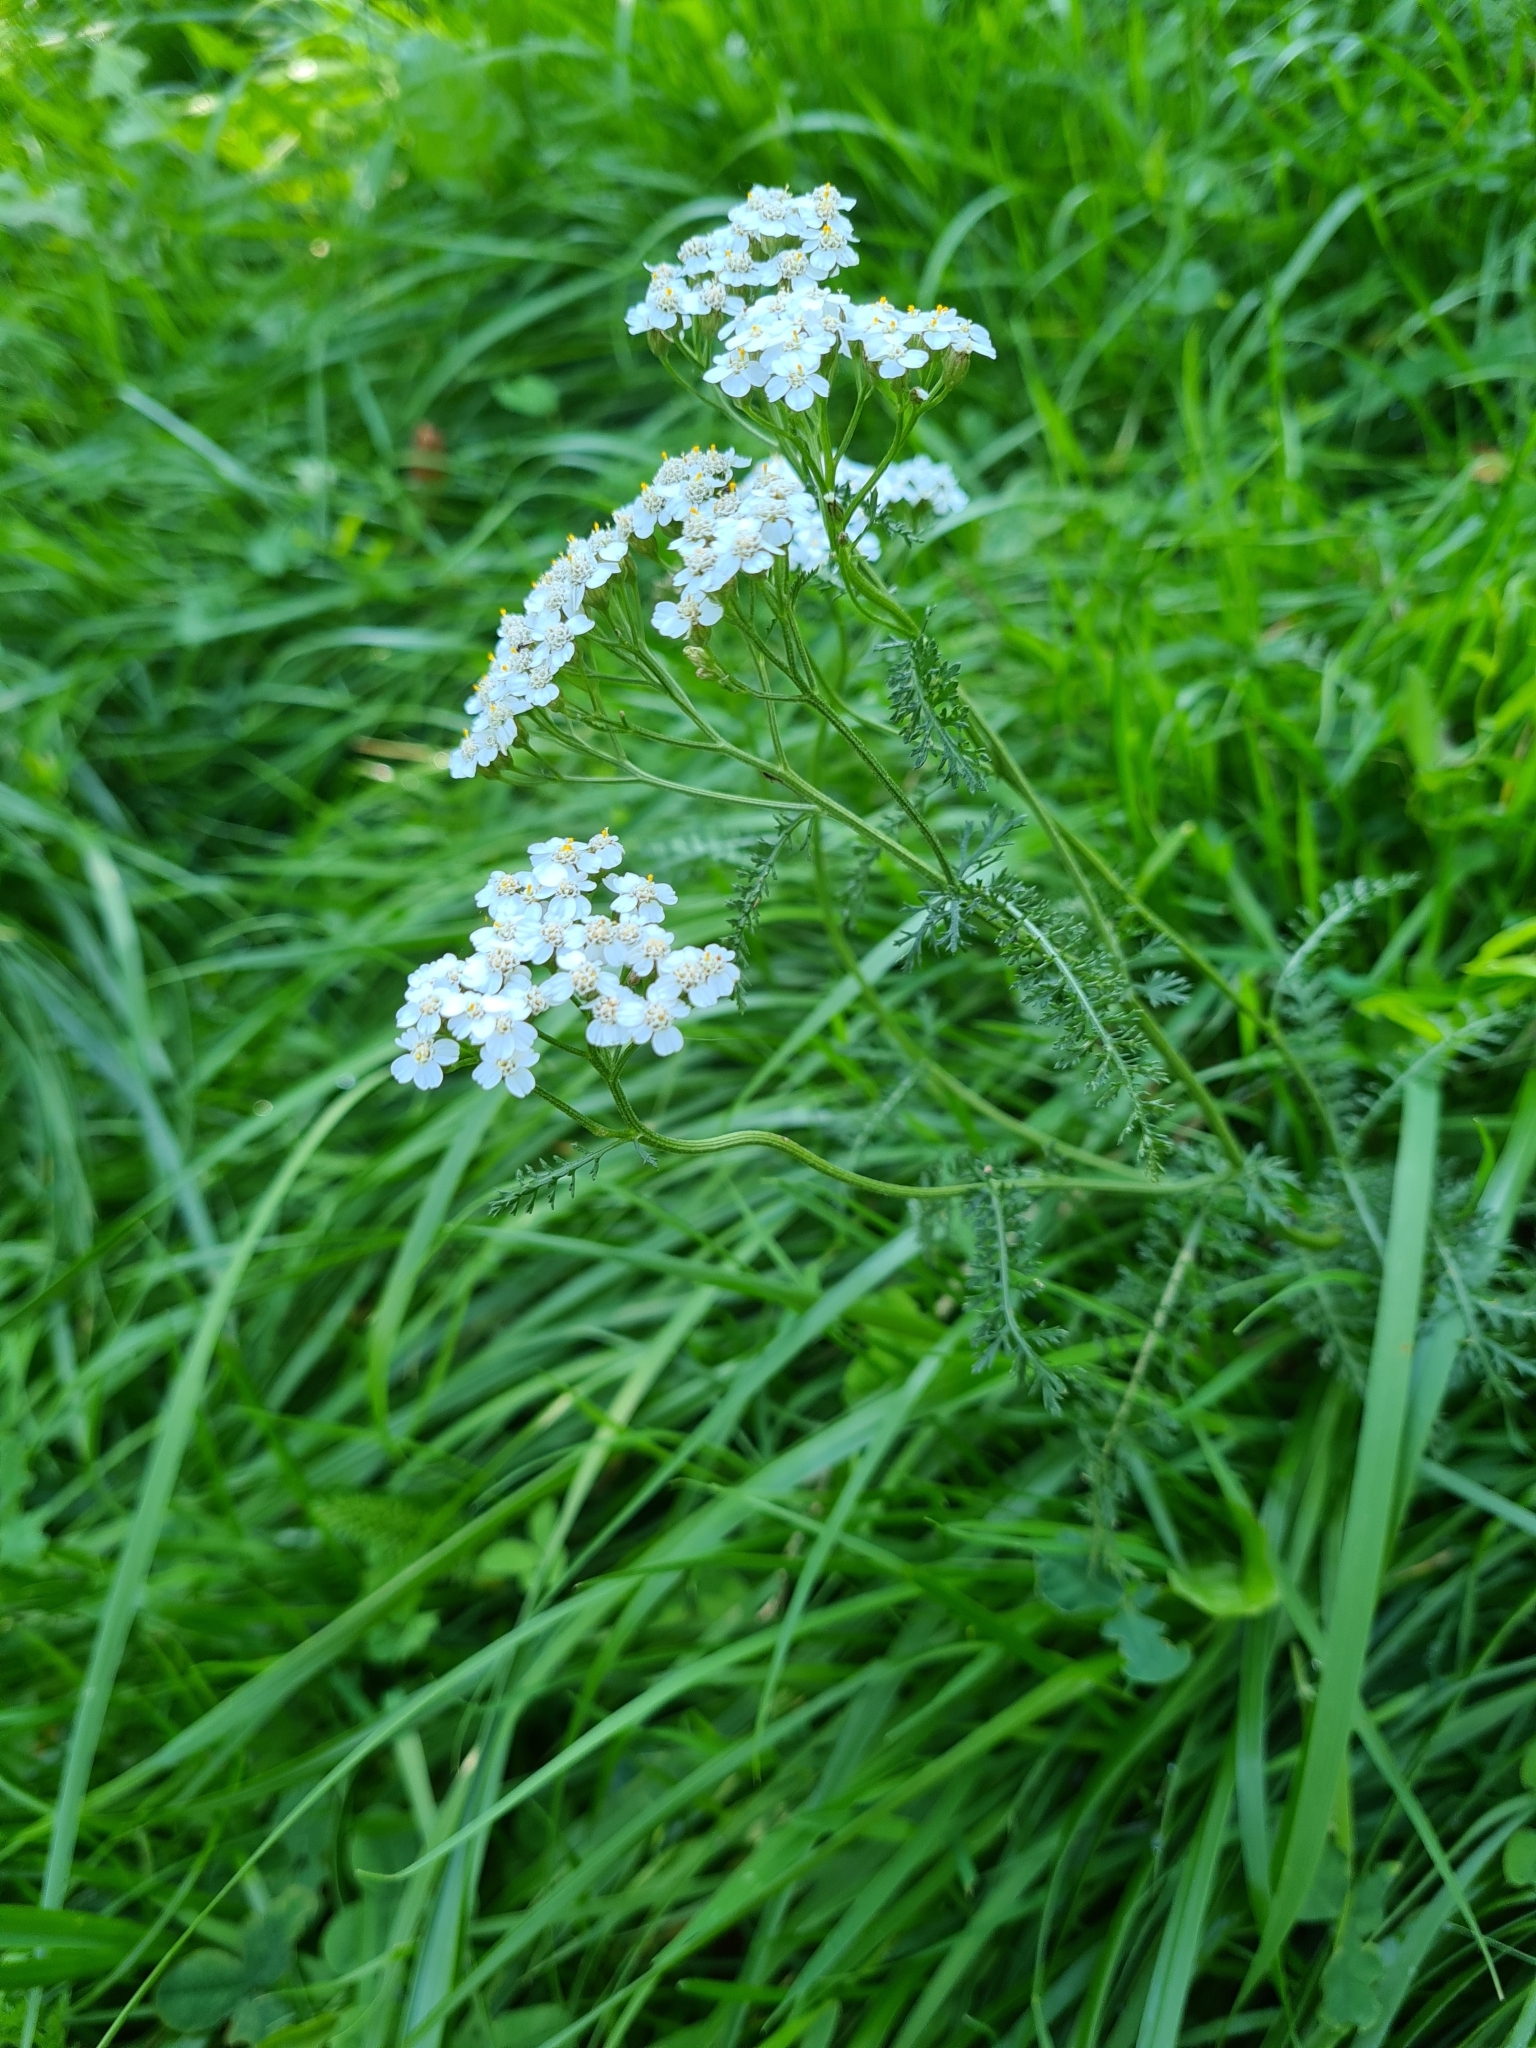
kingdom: Plantae
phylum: Tracheophyta
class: Magnoliopsida
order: Asterales
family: Asteraceae
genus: Achillea
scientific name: Achillea millefolium
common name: Yarrow
